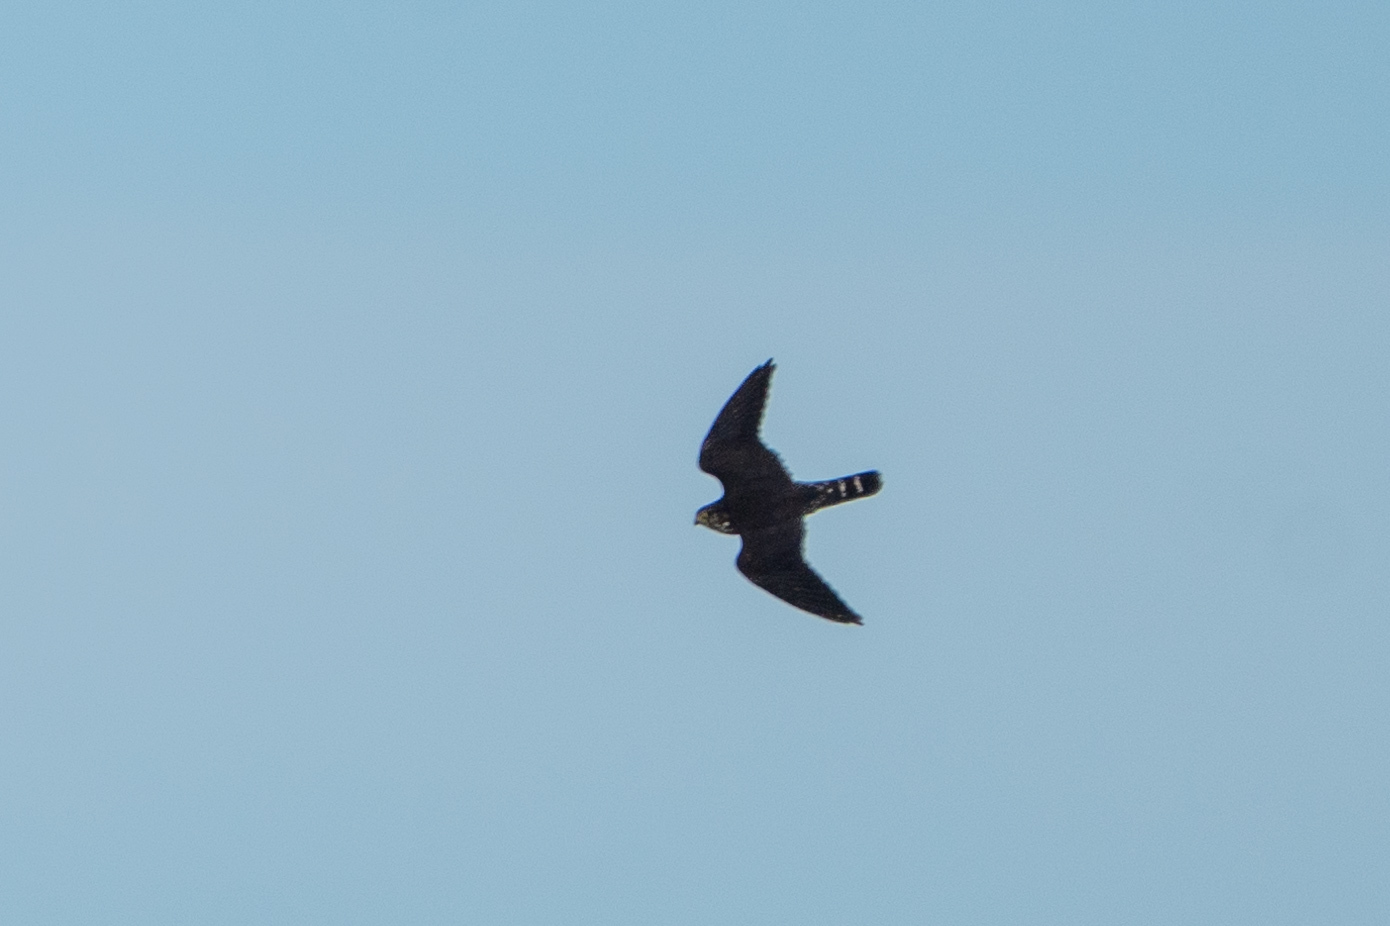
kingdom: Animalia
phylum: Chordata
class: Aves
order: Falconiformes
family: Falconidae
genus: Falco
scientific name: Falco columbarius
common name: Merlin
